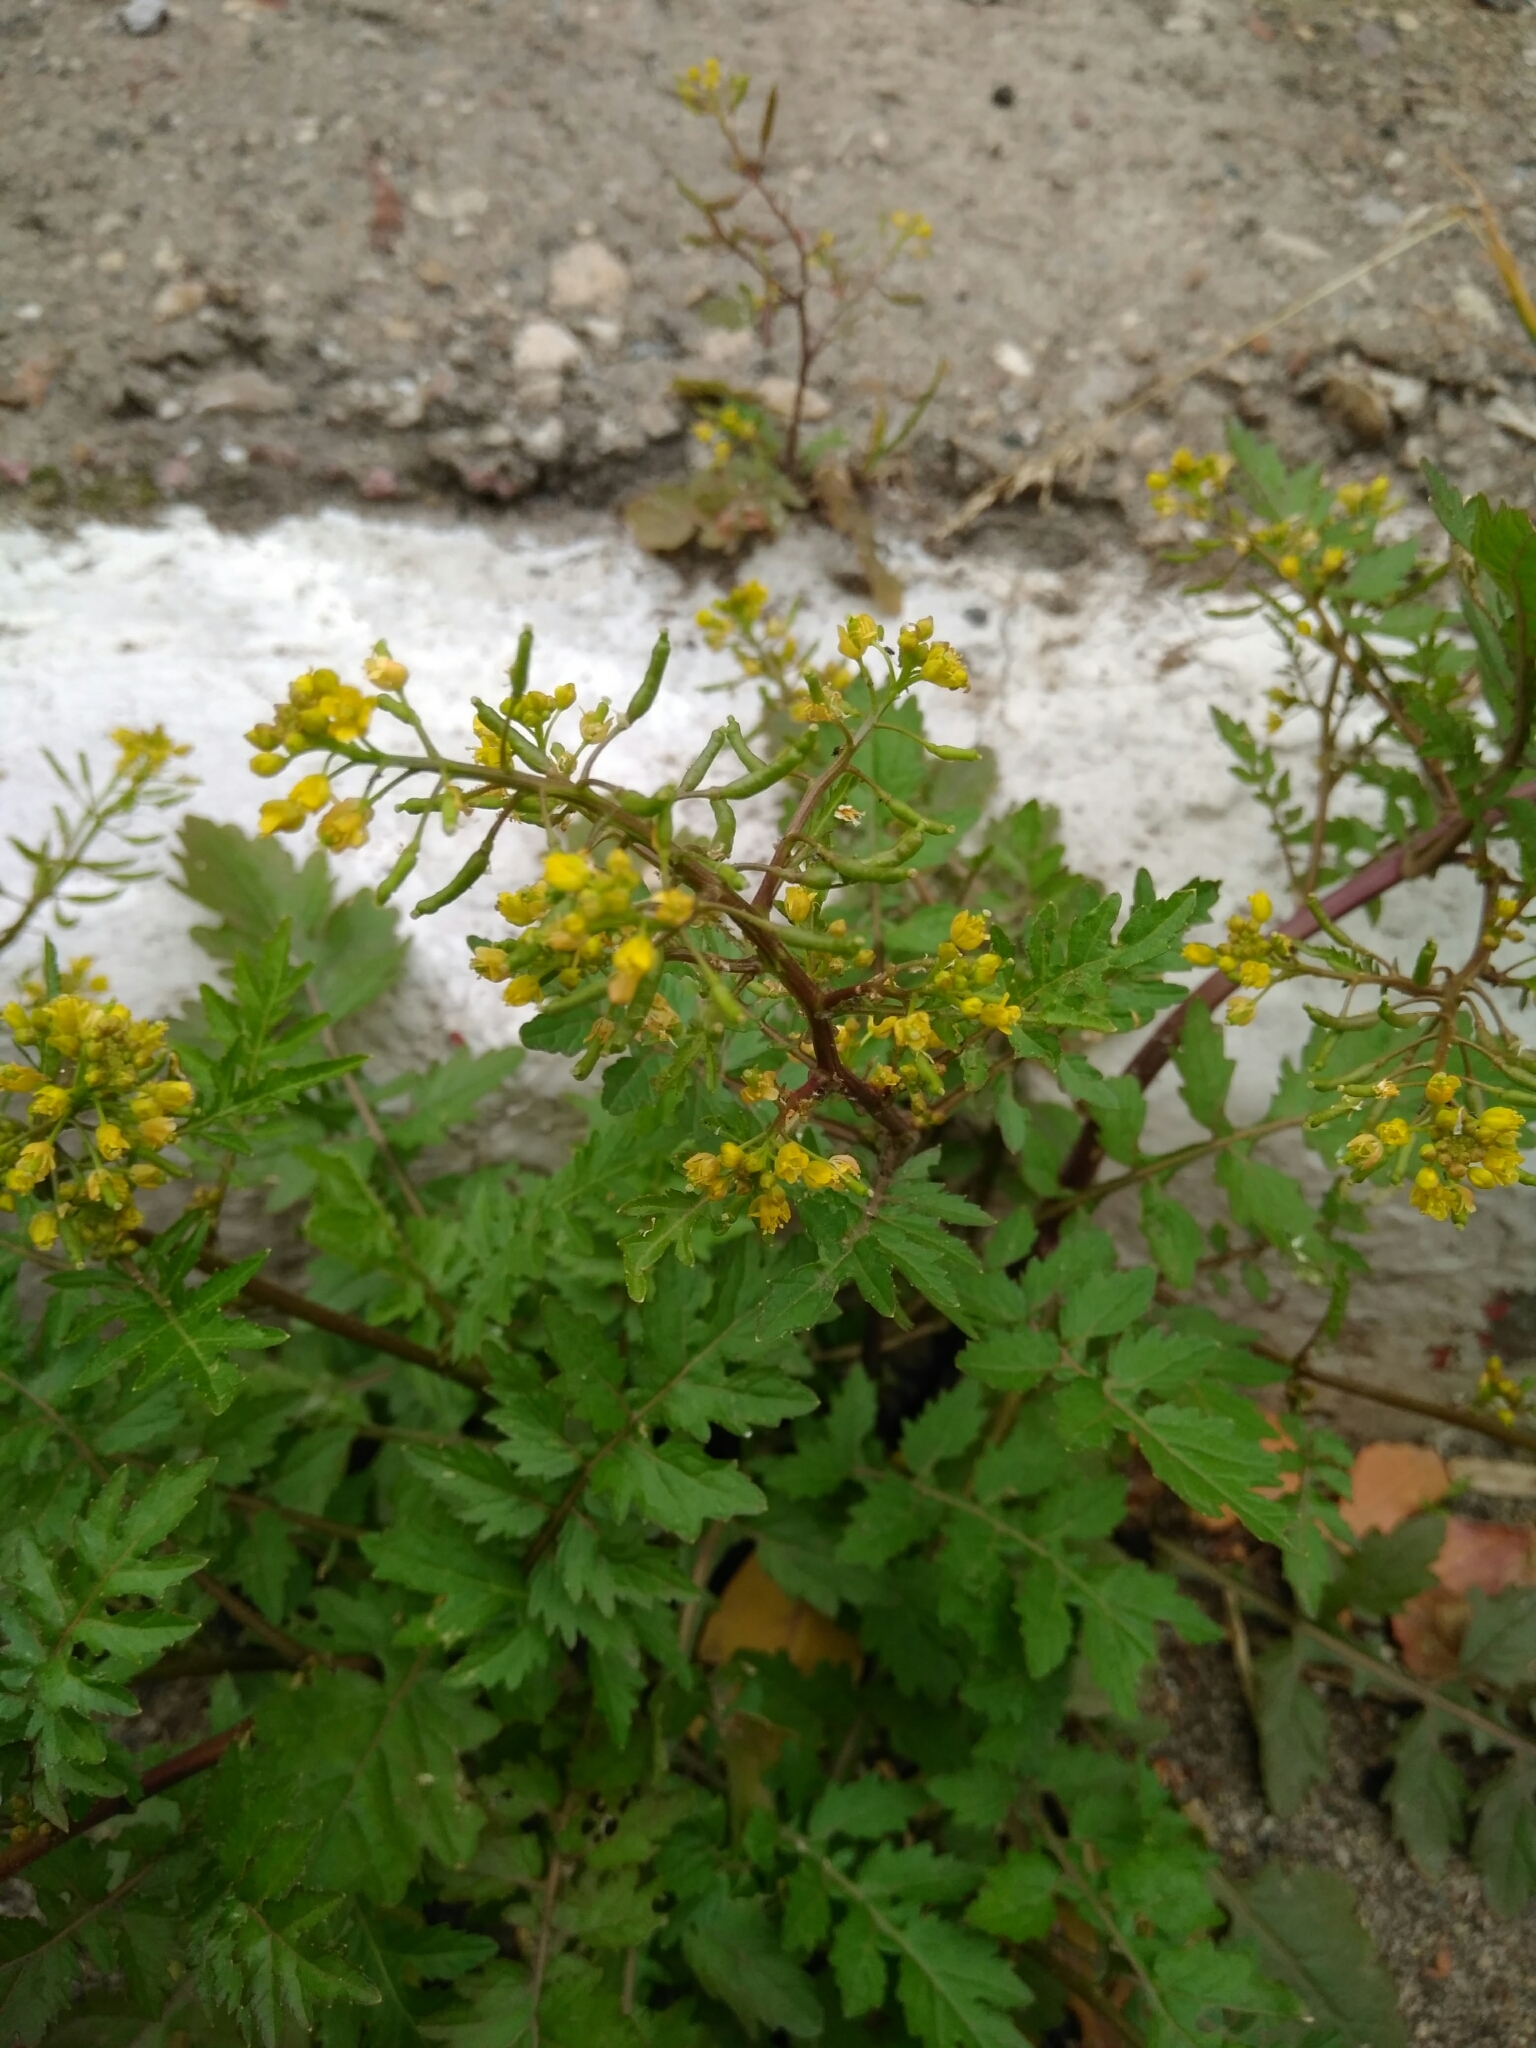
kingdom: Plantae
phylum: Tracheophyta
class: Magnoliopsida
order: Brassicales
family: Brassicaceae
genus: Rorippa
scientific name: Rorippa palustris
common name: Marsh yellow-cress
